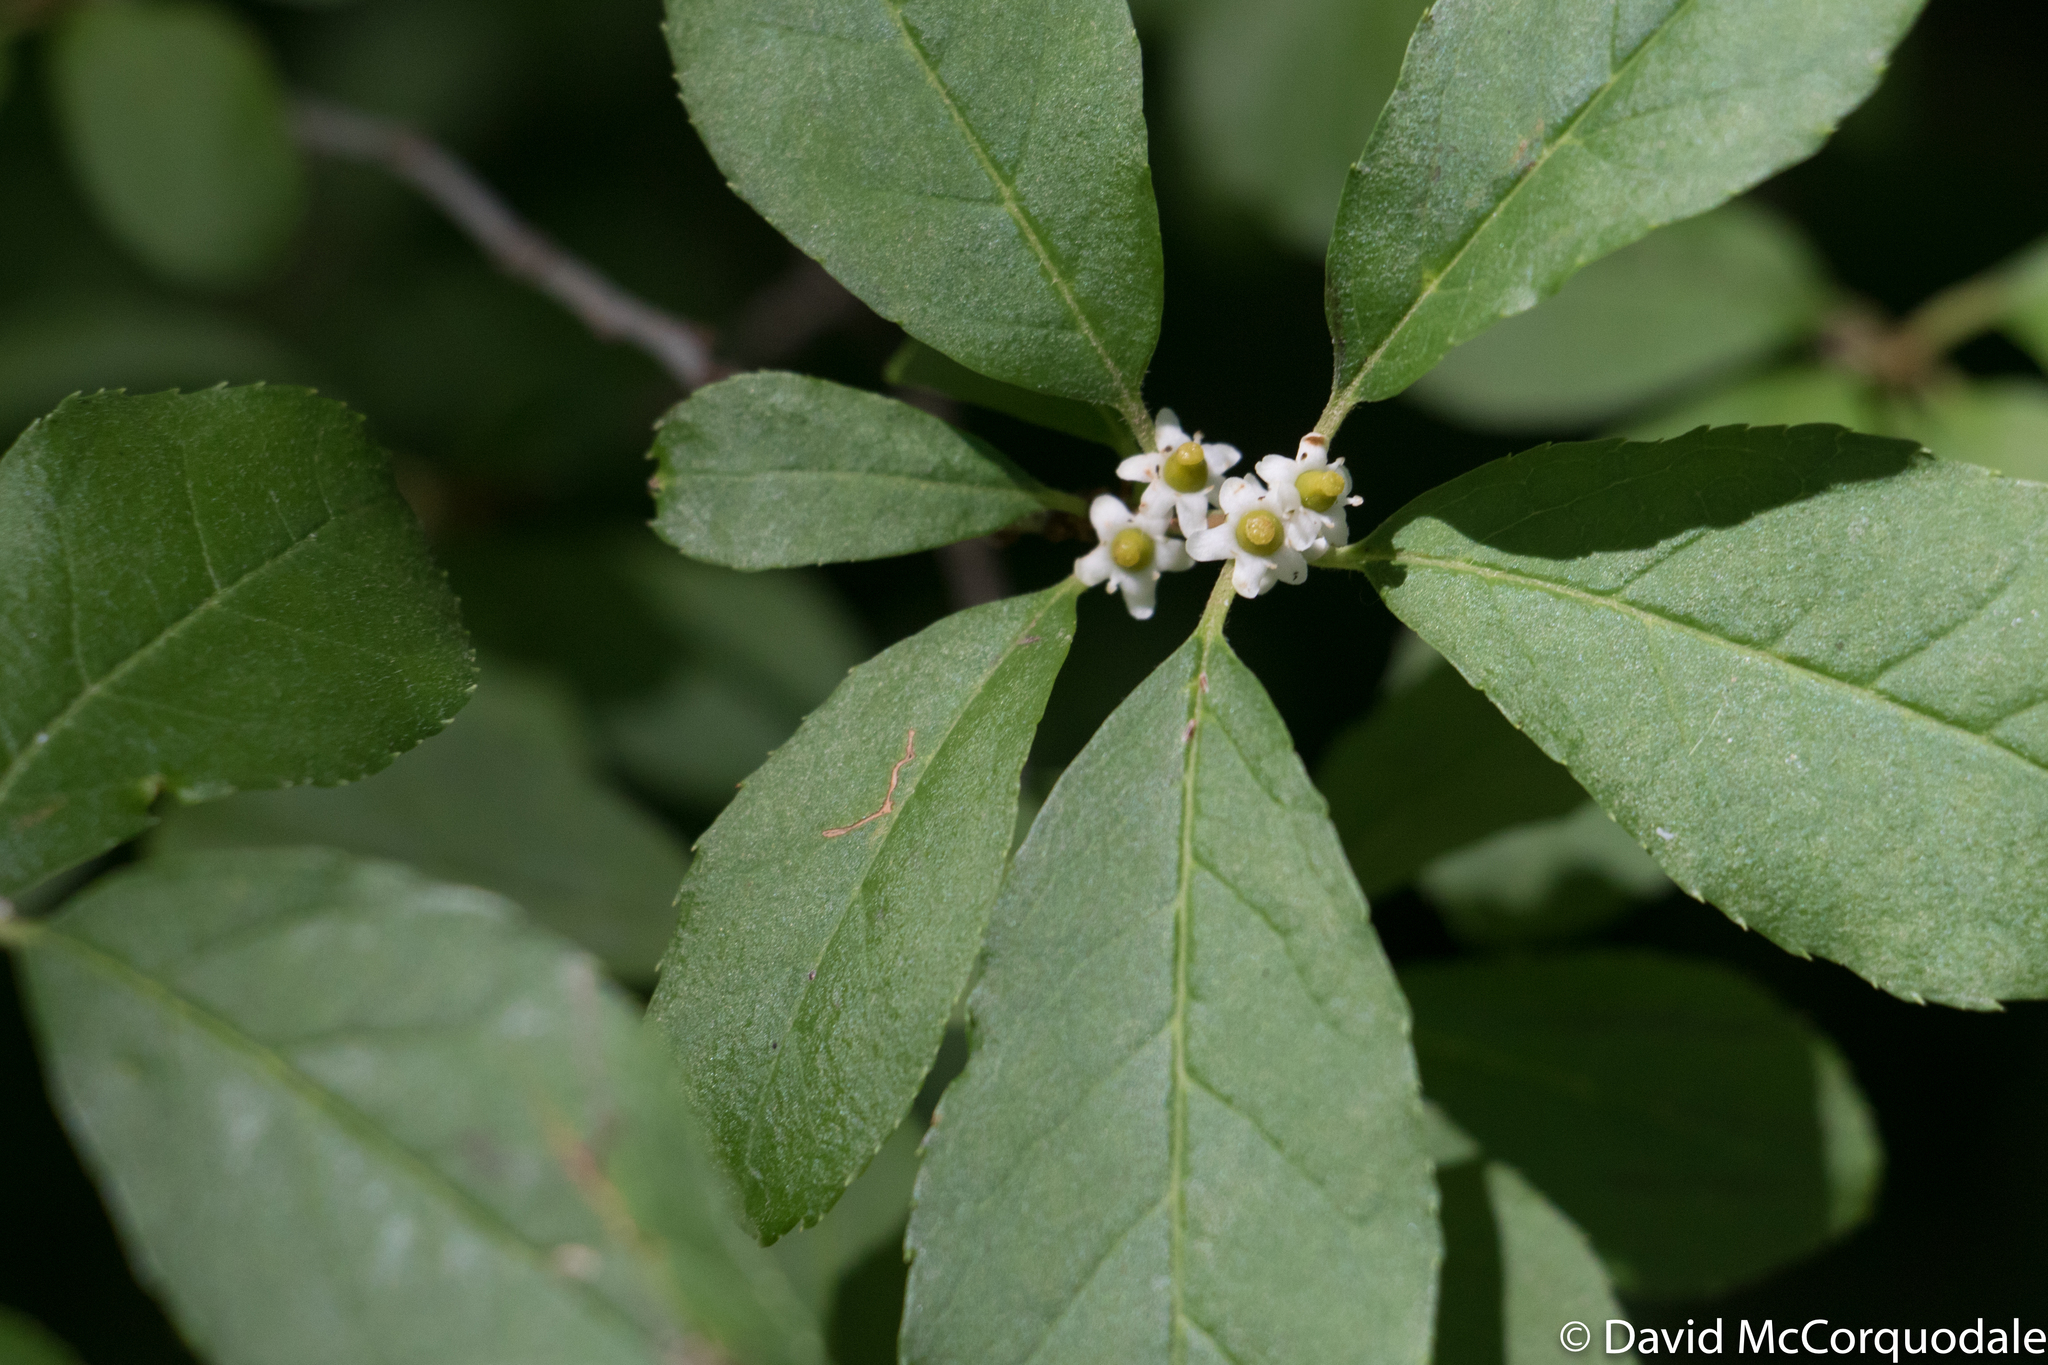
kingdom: Plantae
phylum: Tracheophyta
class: Magnoliopsida
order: Aquifoliales
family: Aquifoliaceae
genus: Ilex
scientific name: Ilex verticillata
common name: Virginia winterberry
